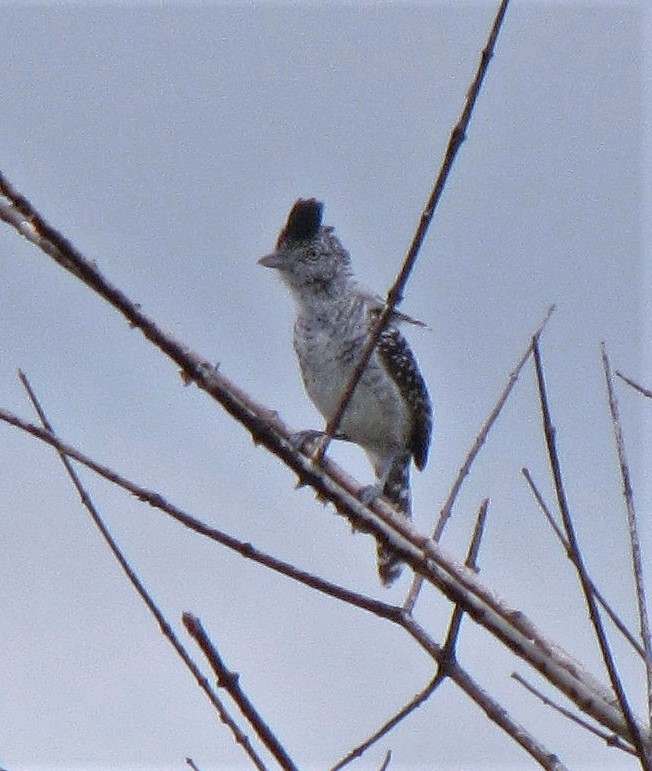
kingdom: Animalia
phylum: Chordata
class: Aves
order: Passeriformes
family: Thamnophilidae
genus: Thamnophilus
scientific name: Thamnophilus doliatus
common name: Barred antshrike
